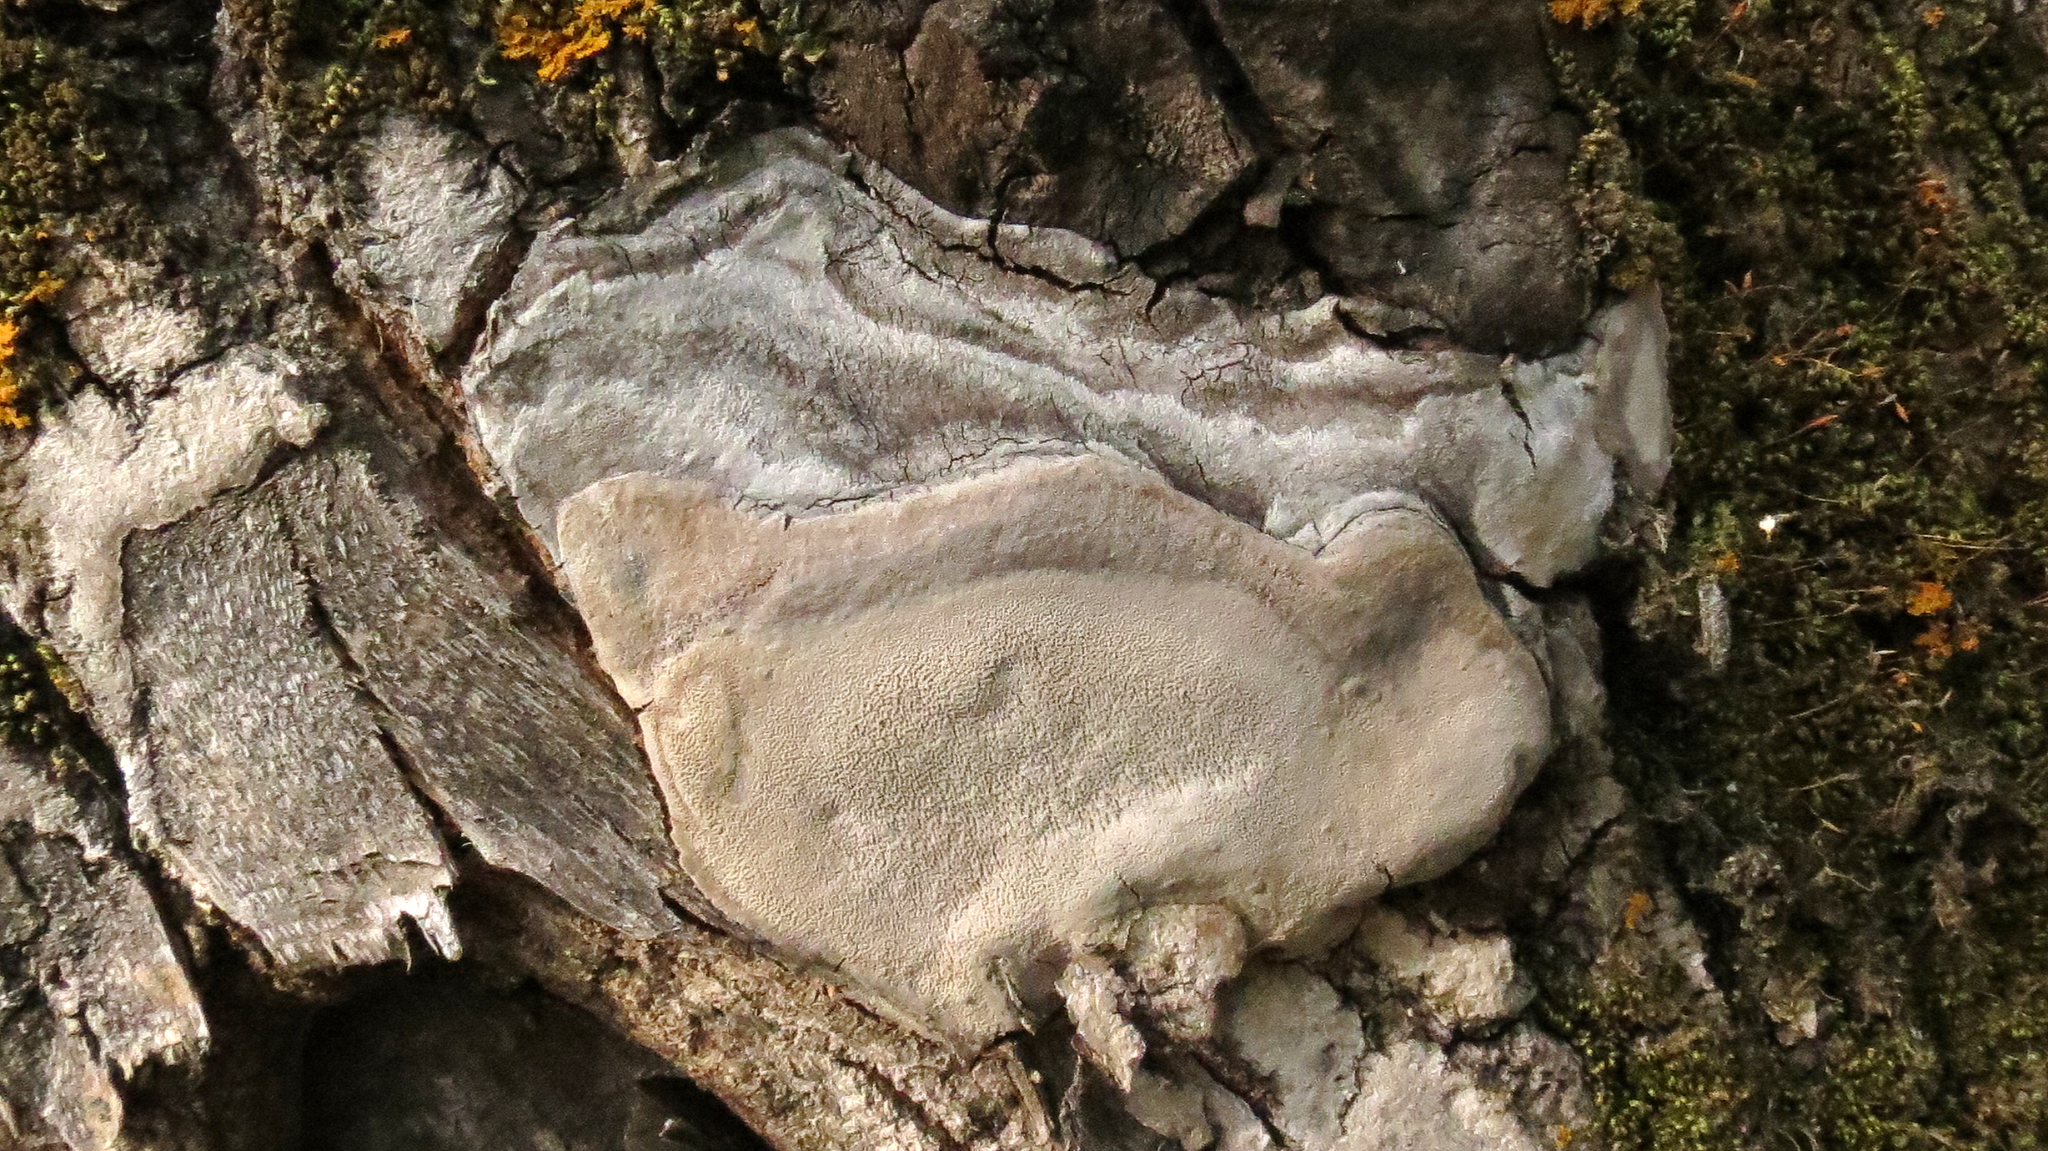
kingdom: Fungi
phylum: Basidiomycota
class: Agaricomycetes
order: Hymenochaetales
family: Hymenochaetaceae
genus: Phellinus
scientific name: Phellinus tremulae
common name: Aspen bracket
